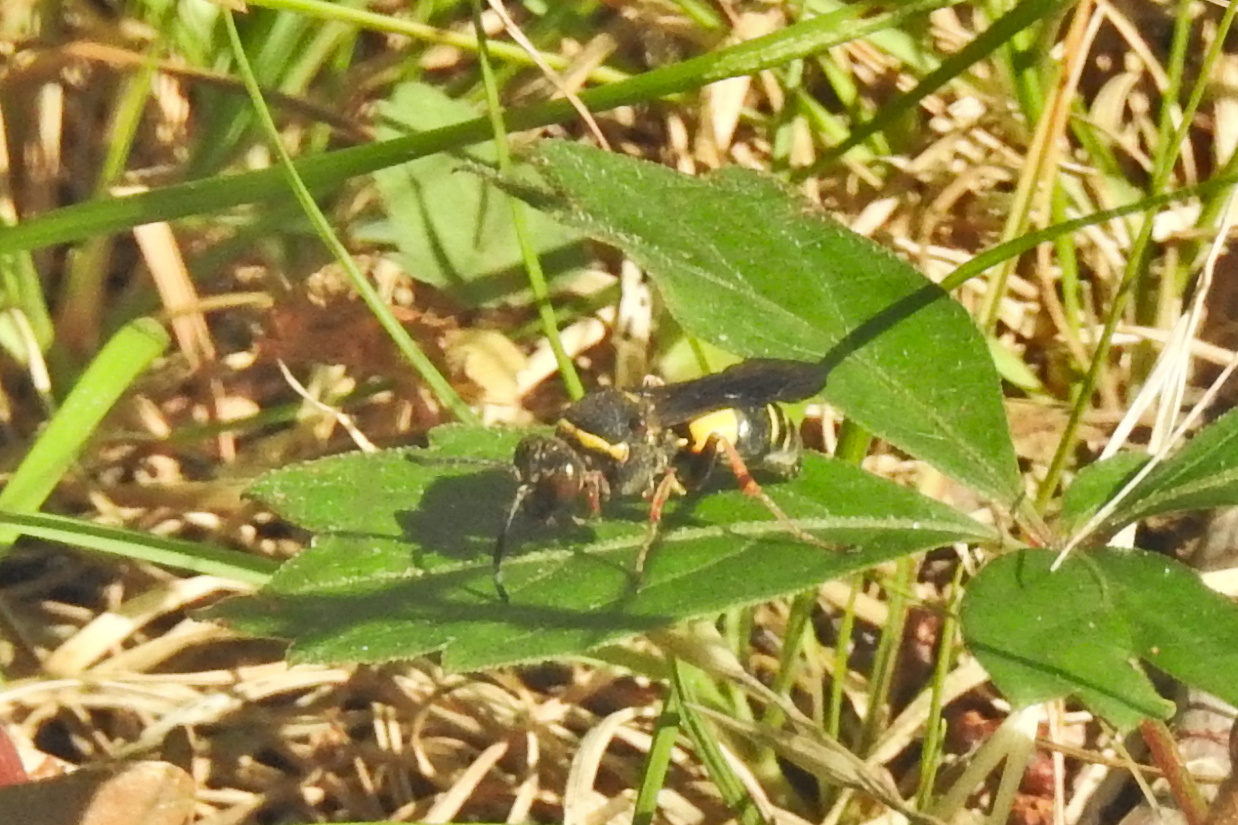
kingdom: Animalia
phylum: Arthropoda
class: Insecta
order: Hymenoptera
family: Crabronidae
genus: Nysson
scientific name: Nysson plagiatus
